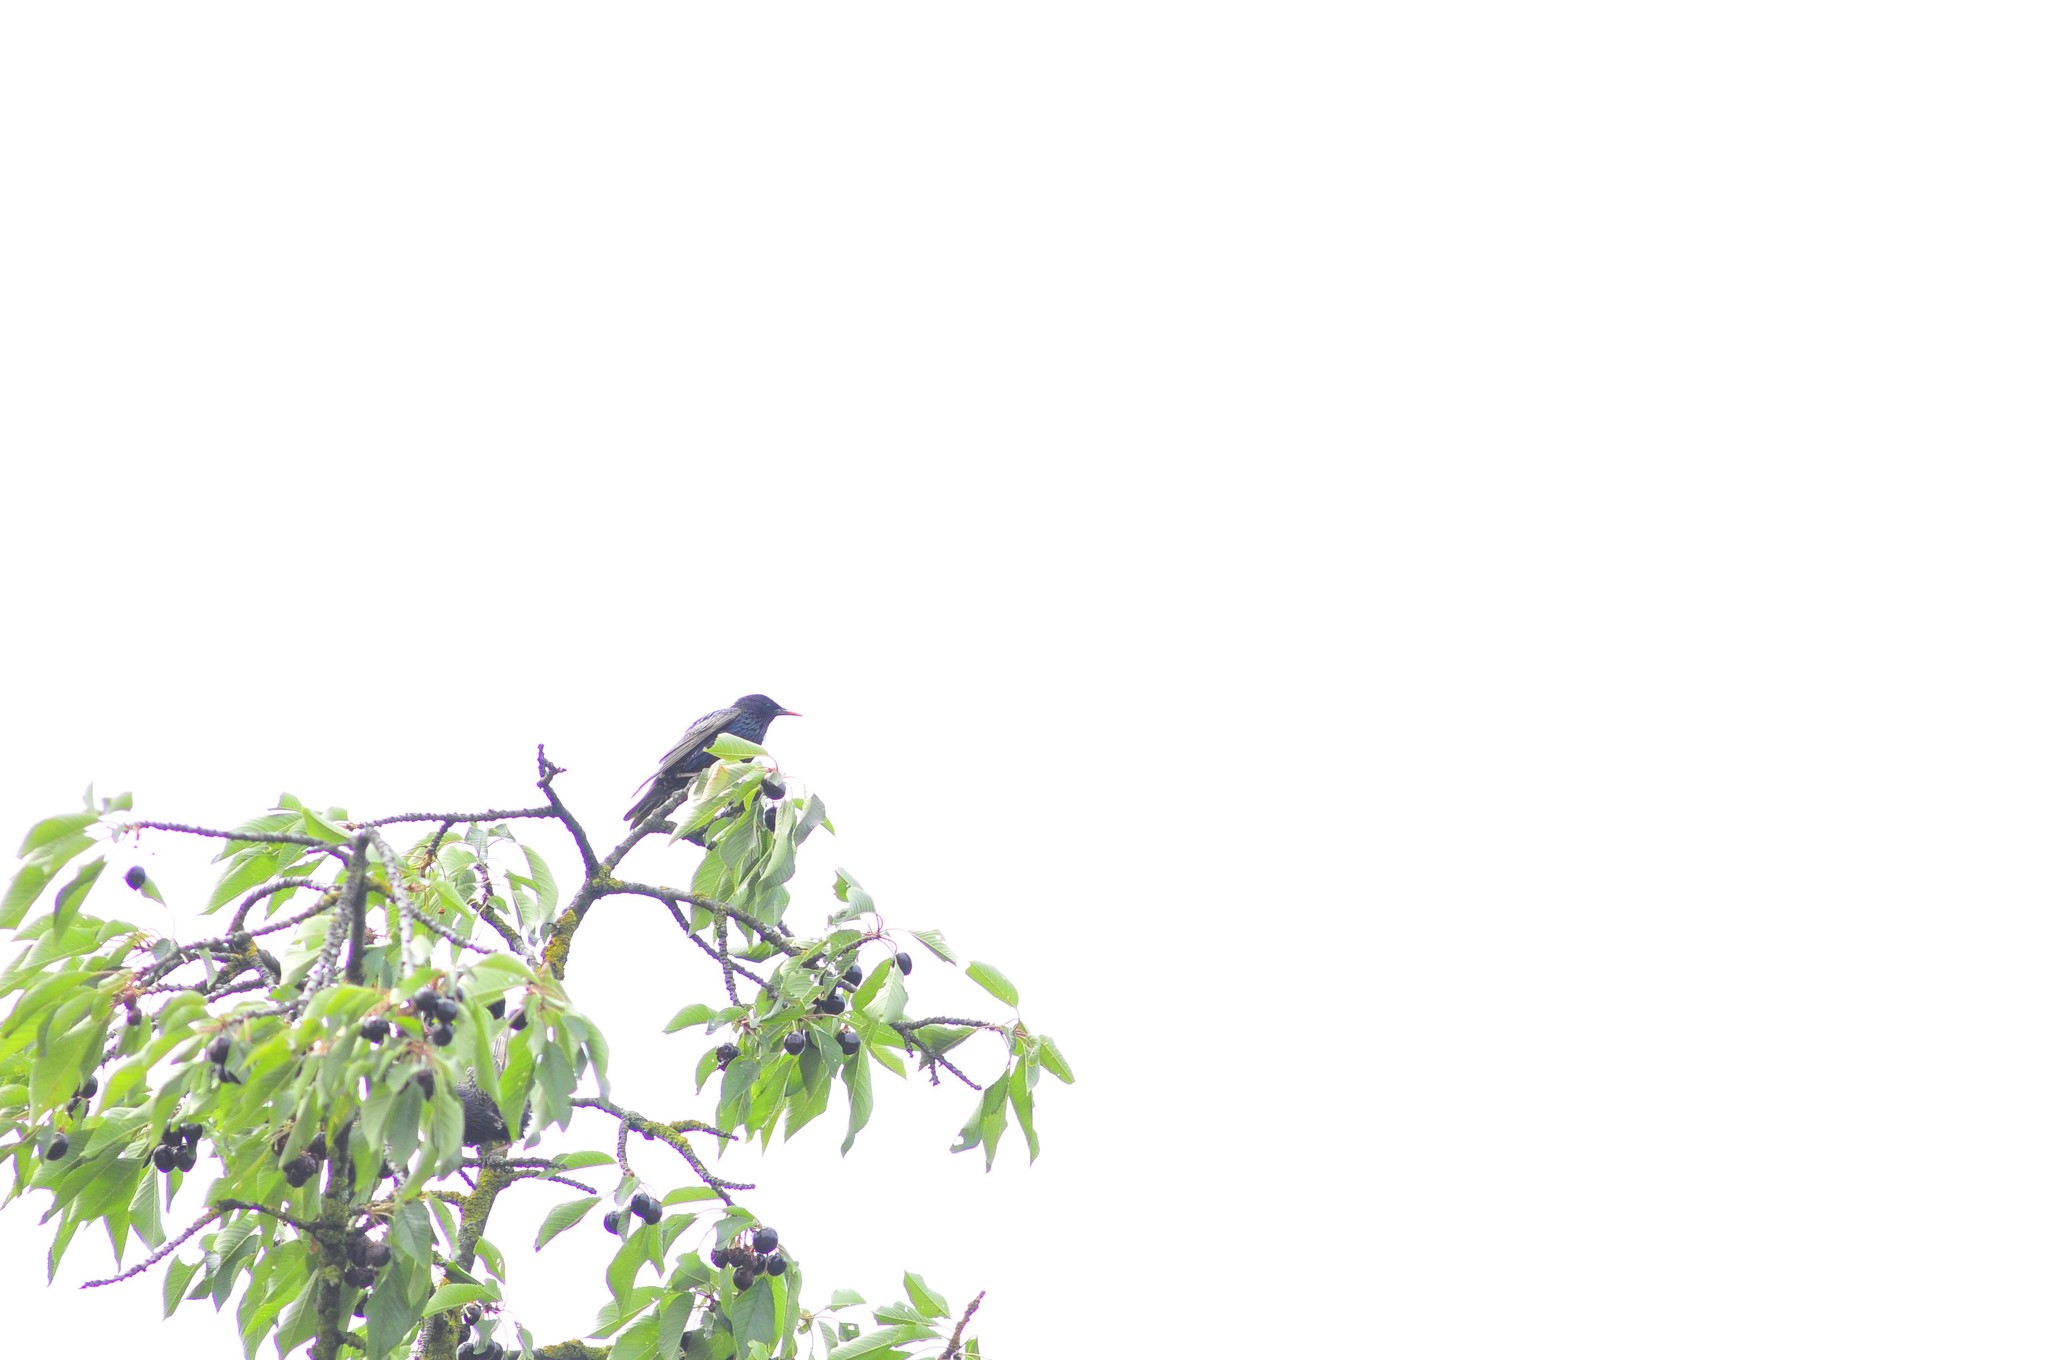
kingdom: Animalia
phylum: Chordata
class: Aves
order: Passeriformes
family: Sturnidae
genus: Sturnus
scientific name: Sturnus vulgaris
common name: Common starling
